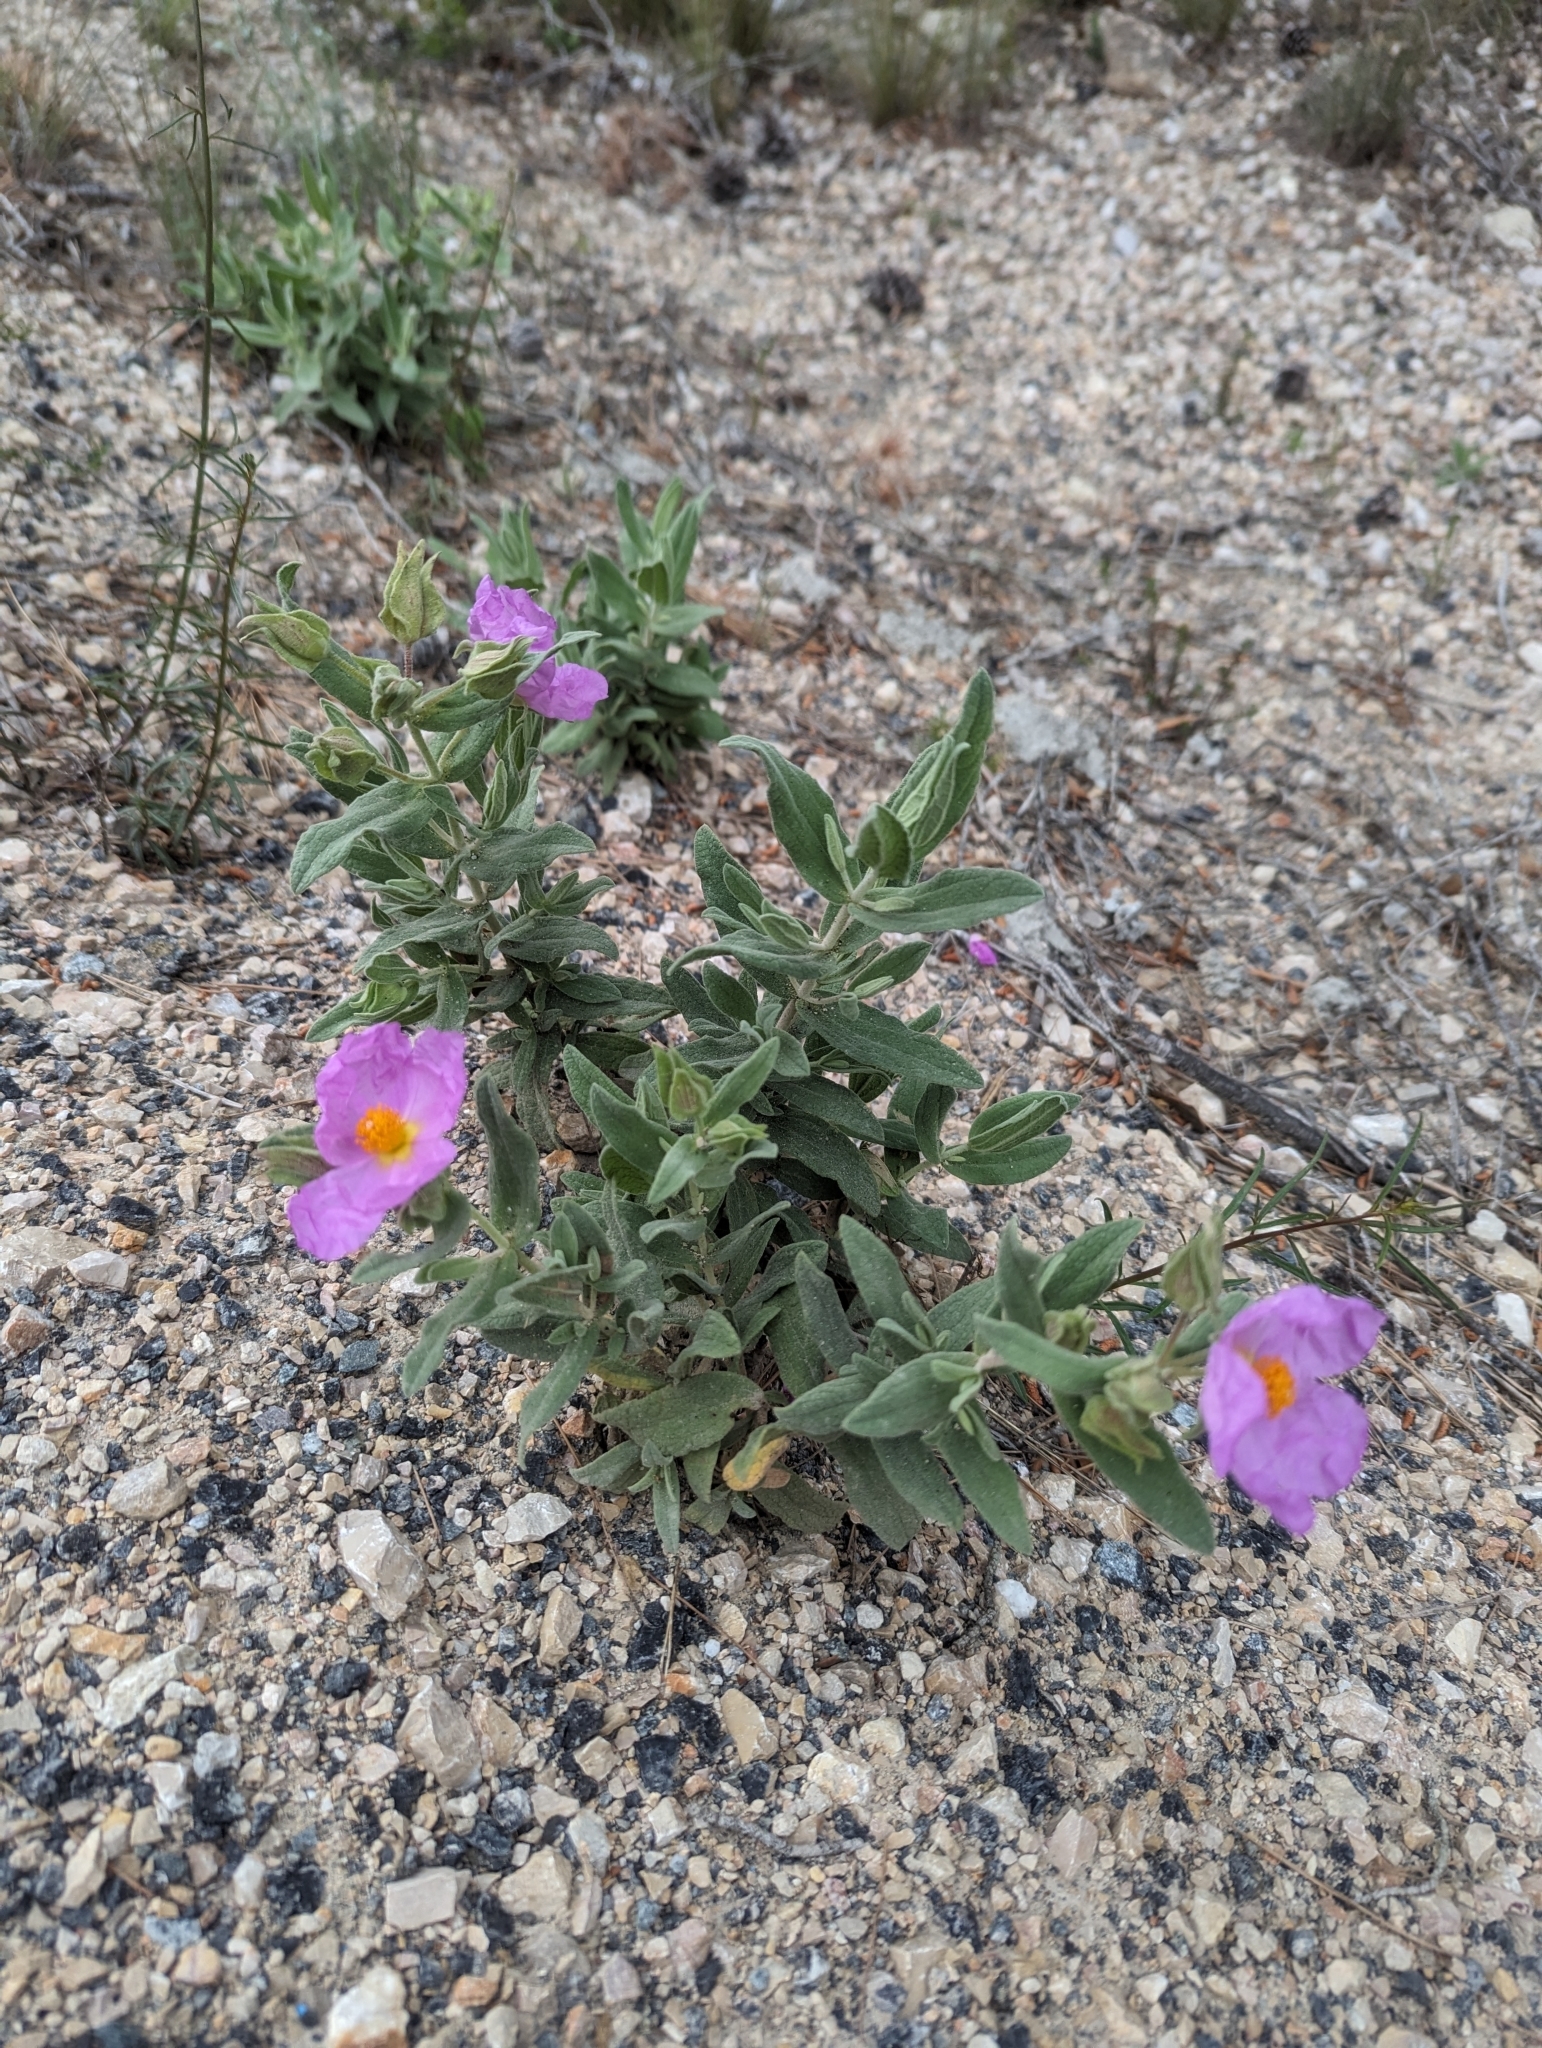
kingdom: Plantae
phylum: Tracheophyta
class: Magnoliopsida
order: Malvales
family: Cistaceae
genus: Cistus
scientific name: Cistus albidus
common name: White-leaf rock-rose
